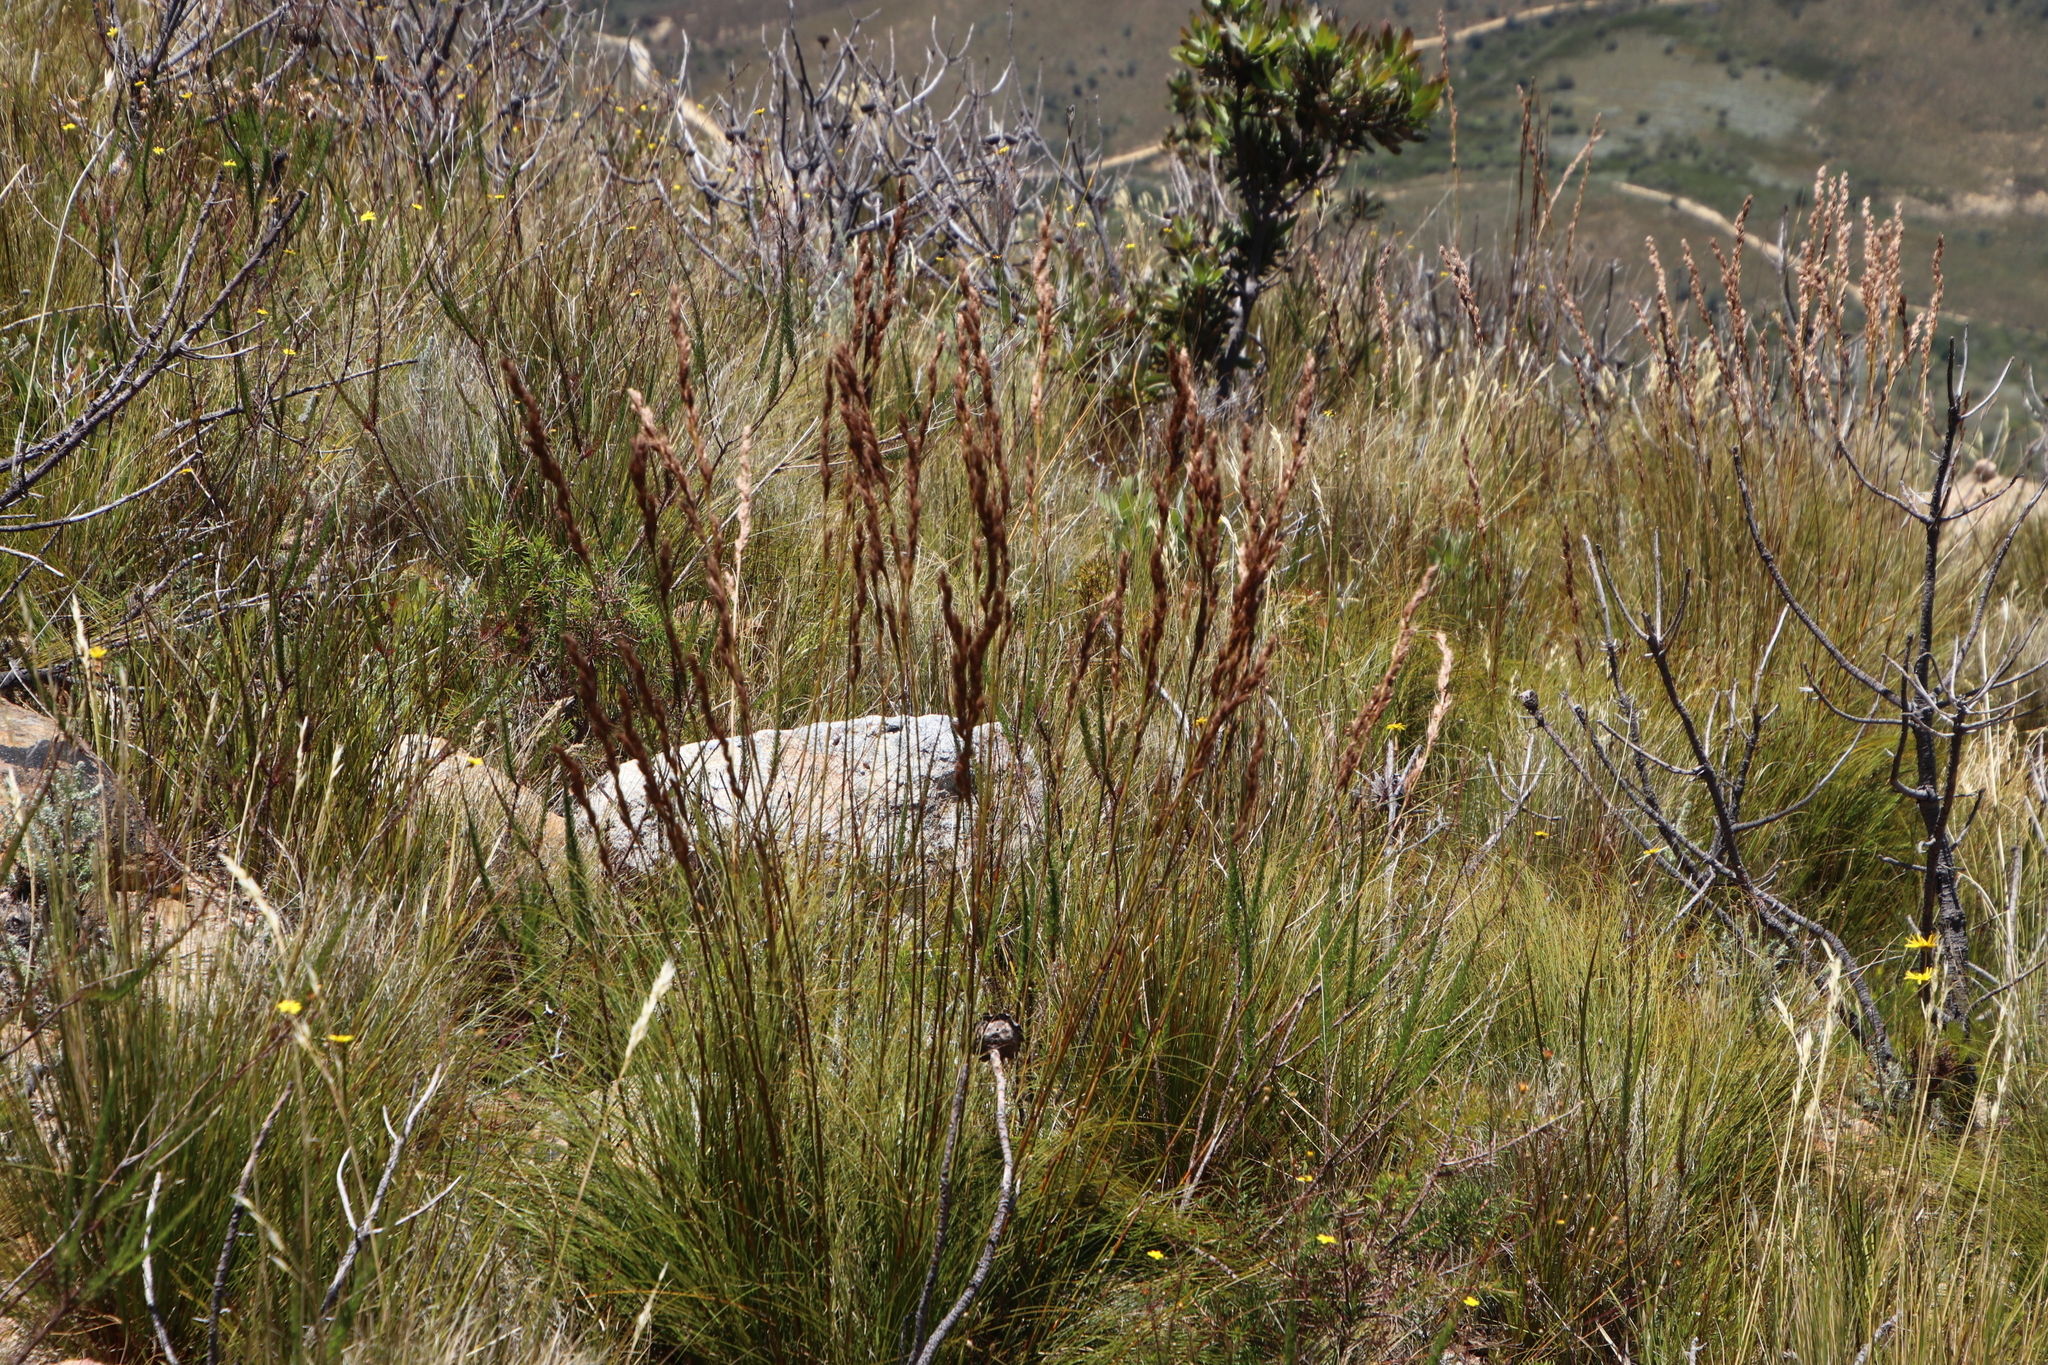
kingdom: Plantae
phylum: Tracheophyta
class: Liliopsida
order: Poales
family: Cyperaceae
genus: Tetraria
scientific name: Tetraria ustulata
